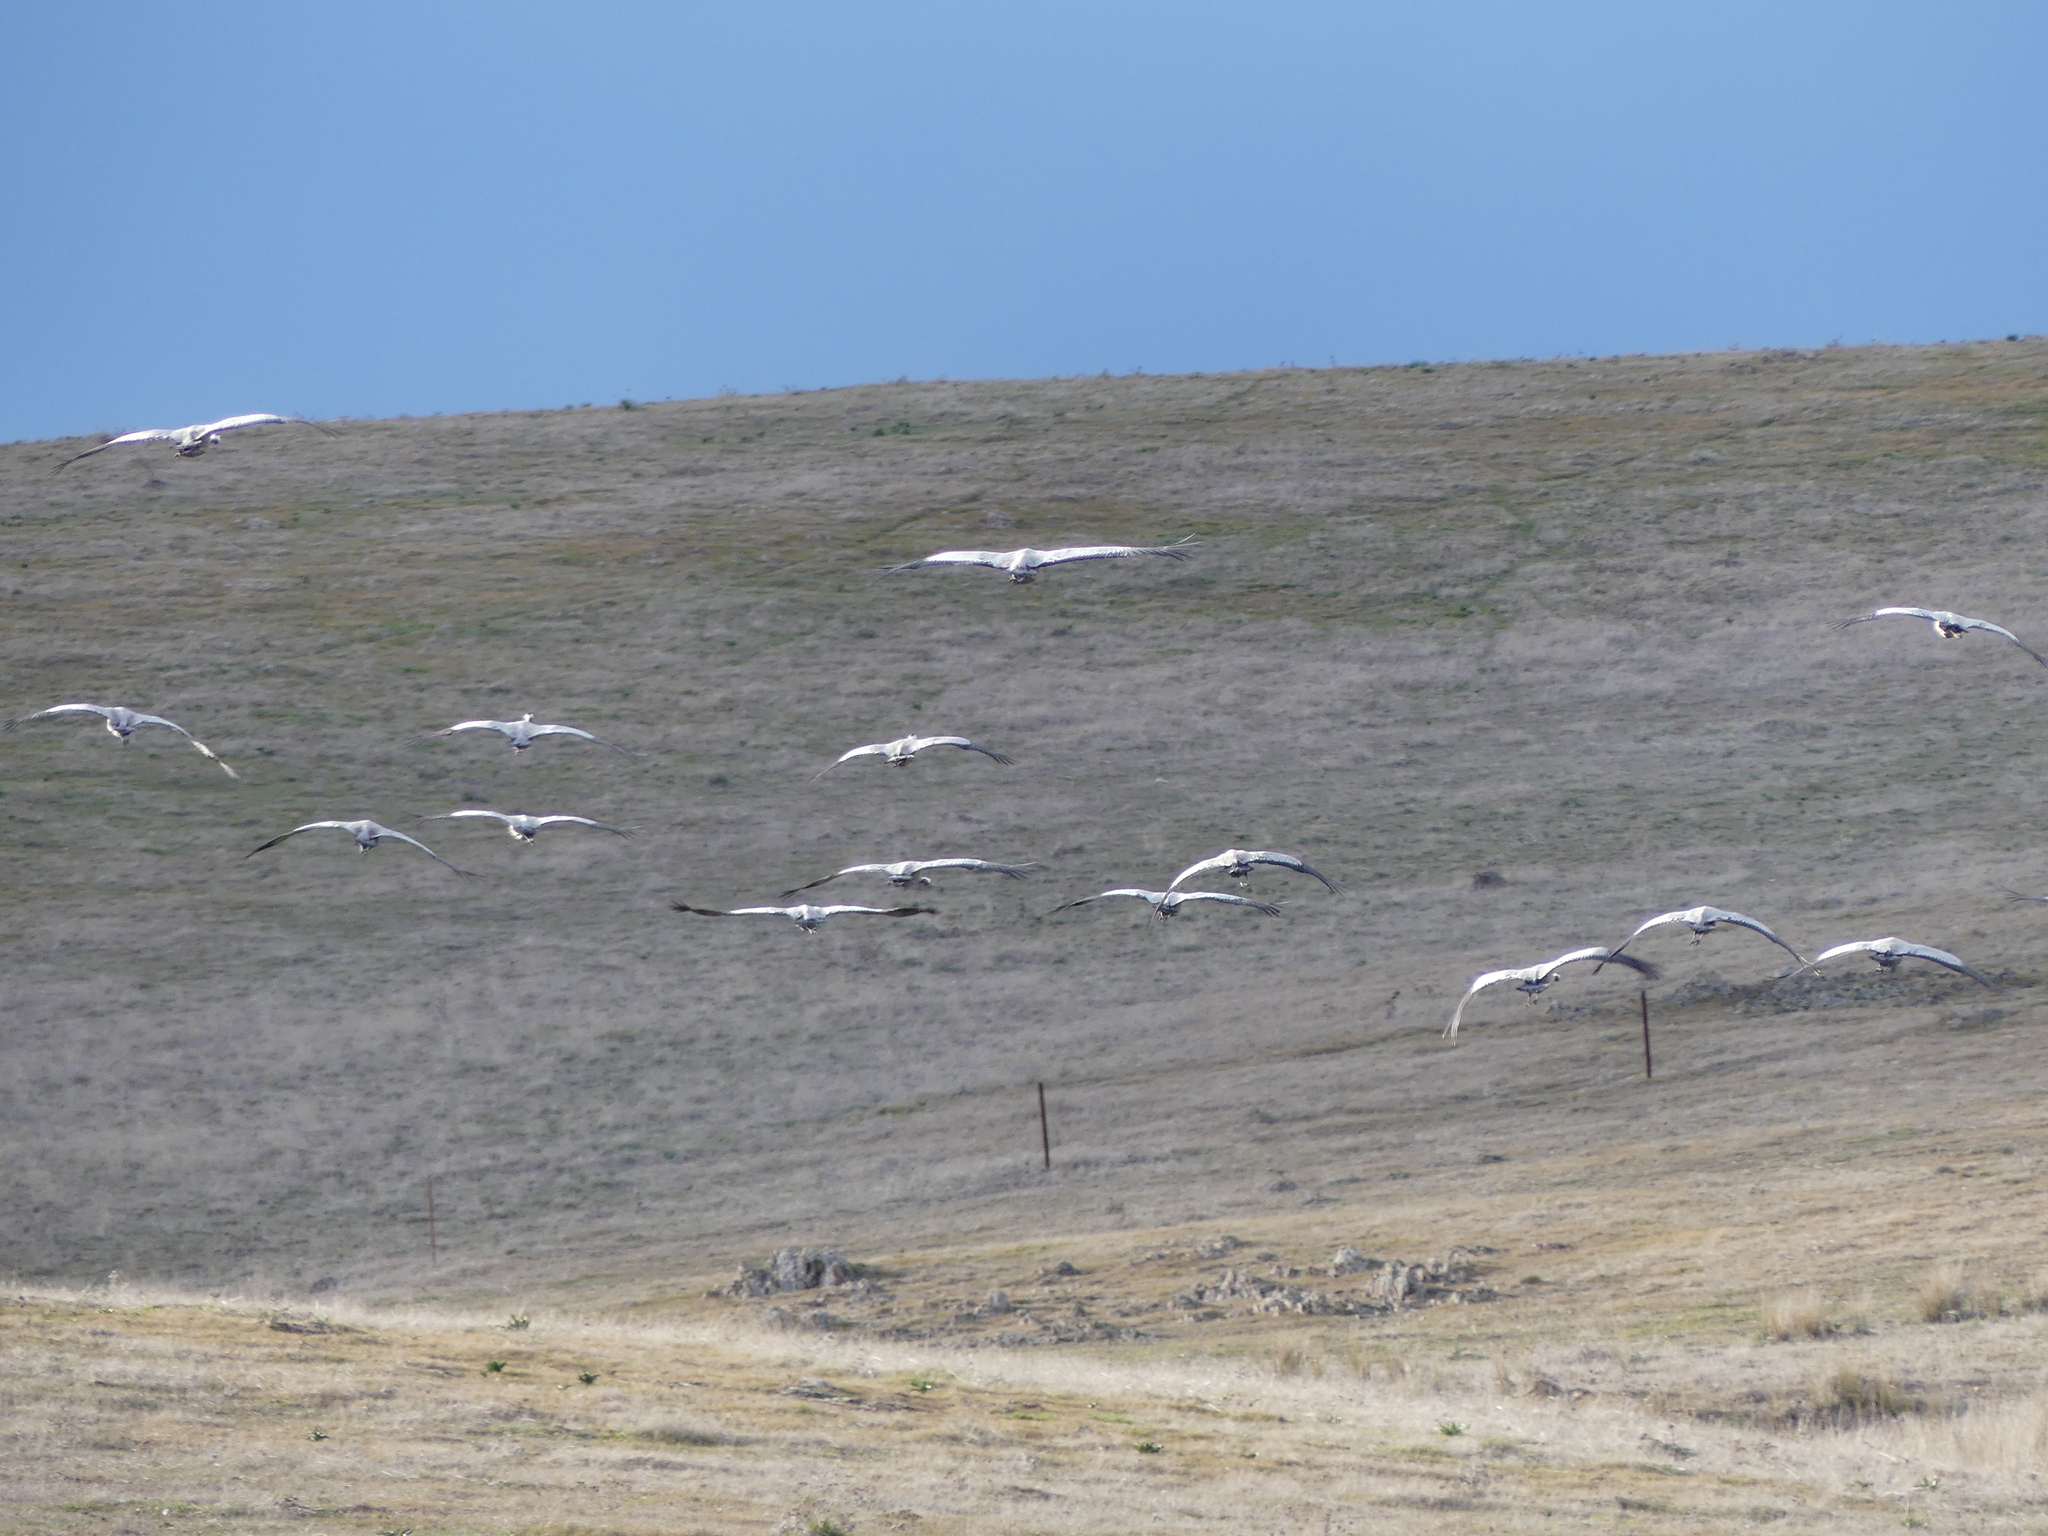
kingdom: Animalia
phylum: Chordata
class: Aves
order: Gruiformes
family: Gruidae
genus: Grus
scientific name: Grus grus
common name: Common crane
